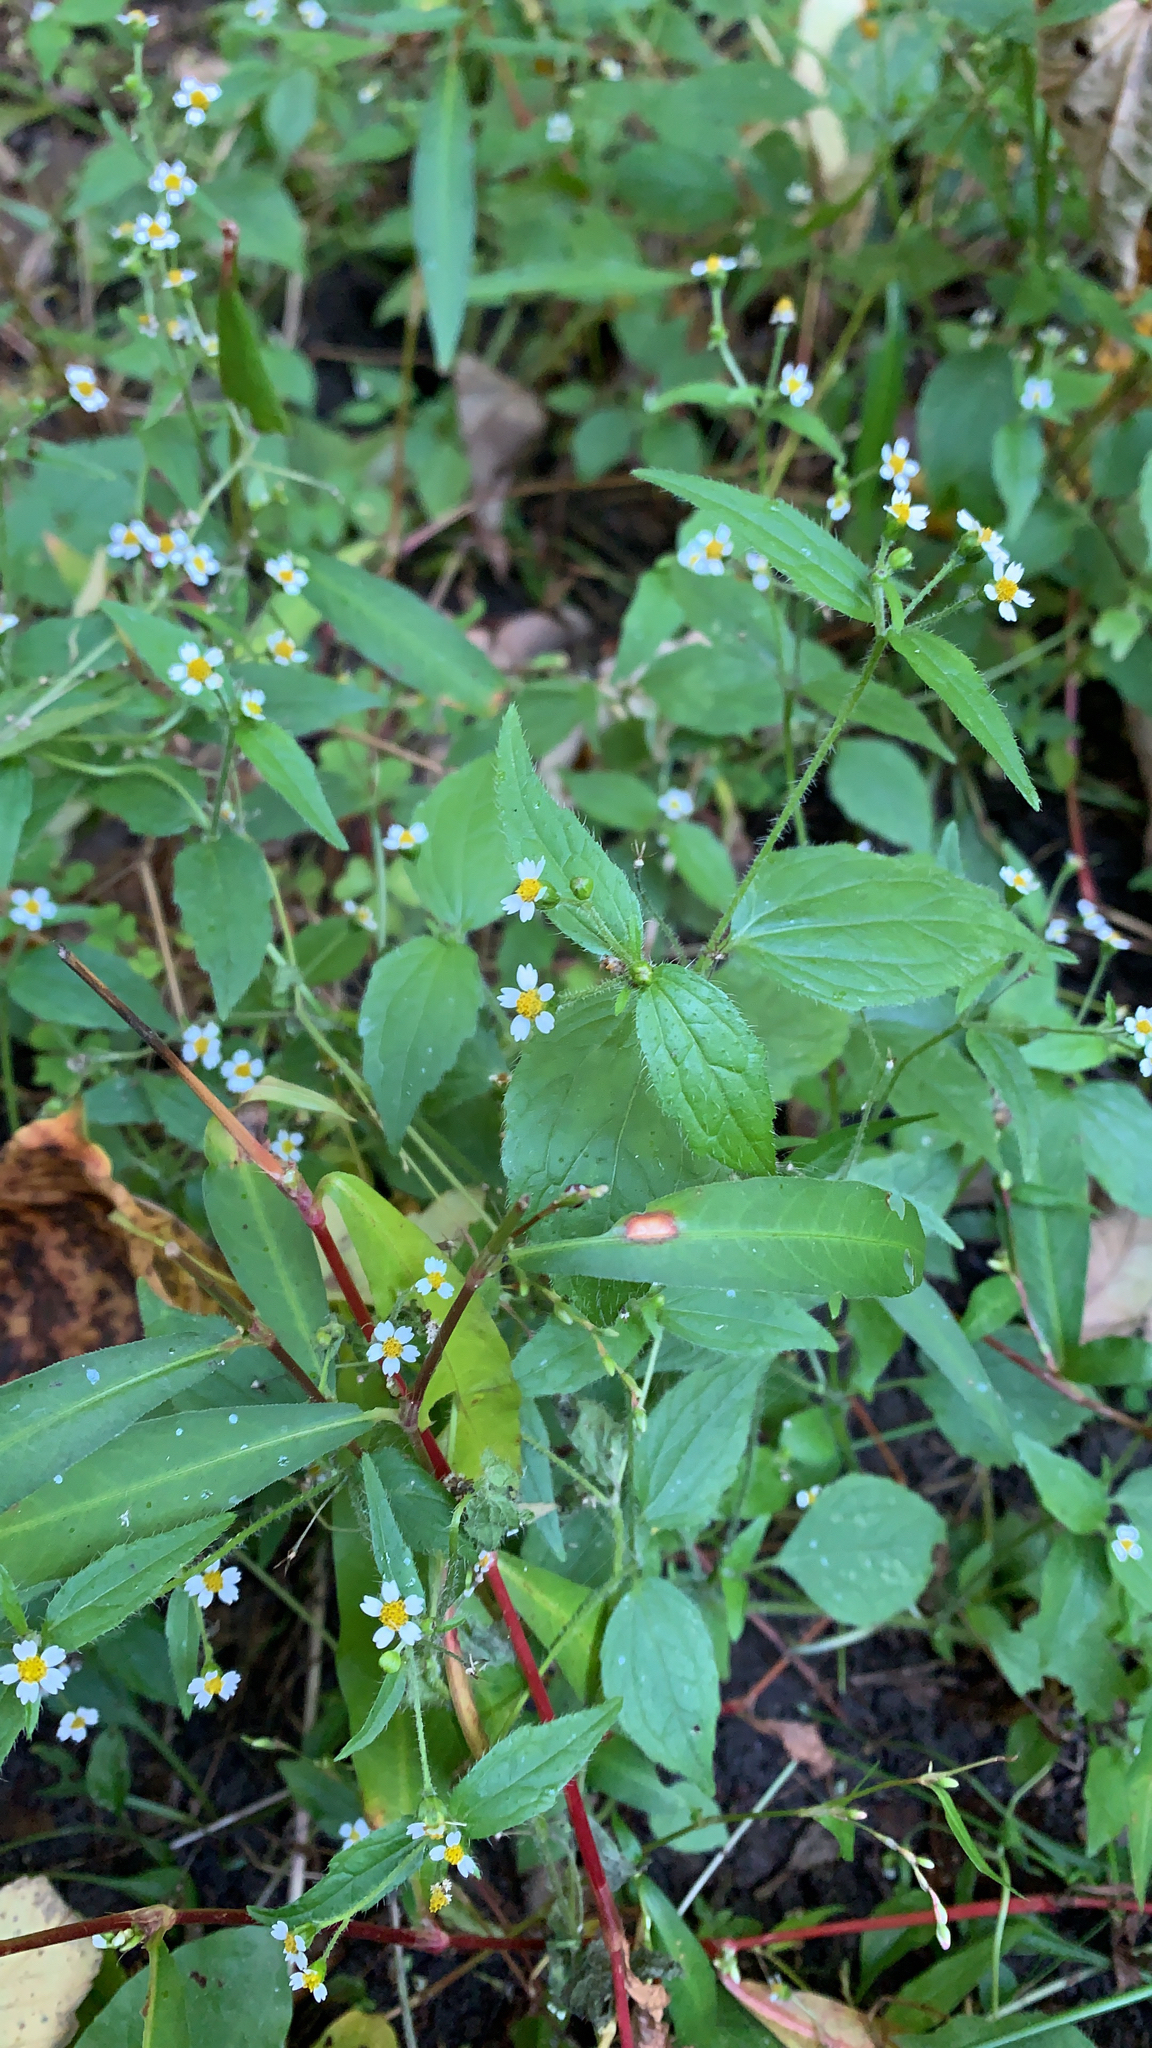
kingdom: Plantae
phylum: Tracheophyta
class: Magnoliopsida
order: Asterales
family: Asteraceae
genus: Galinsoga
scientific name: Galinsoga quadriradiata
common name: Shaggy soldier
